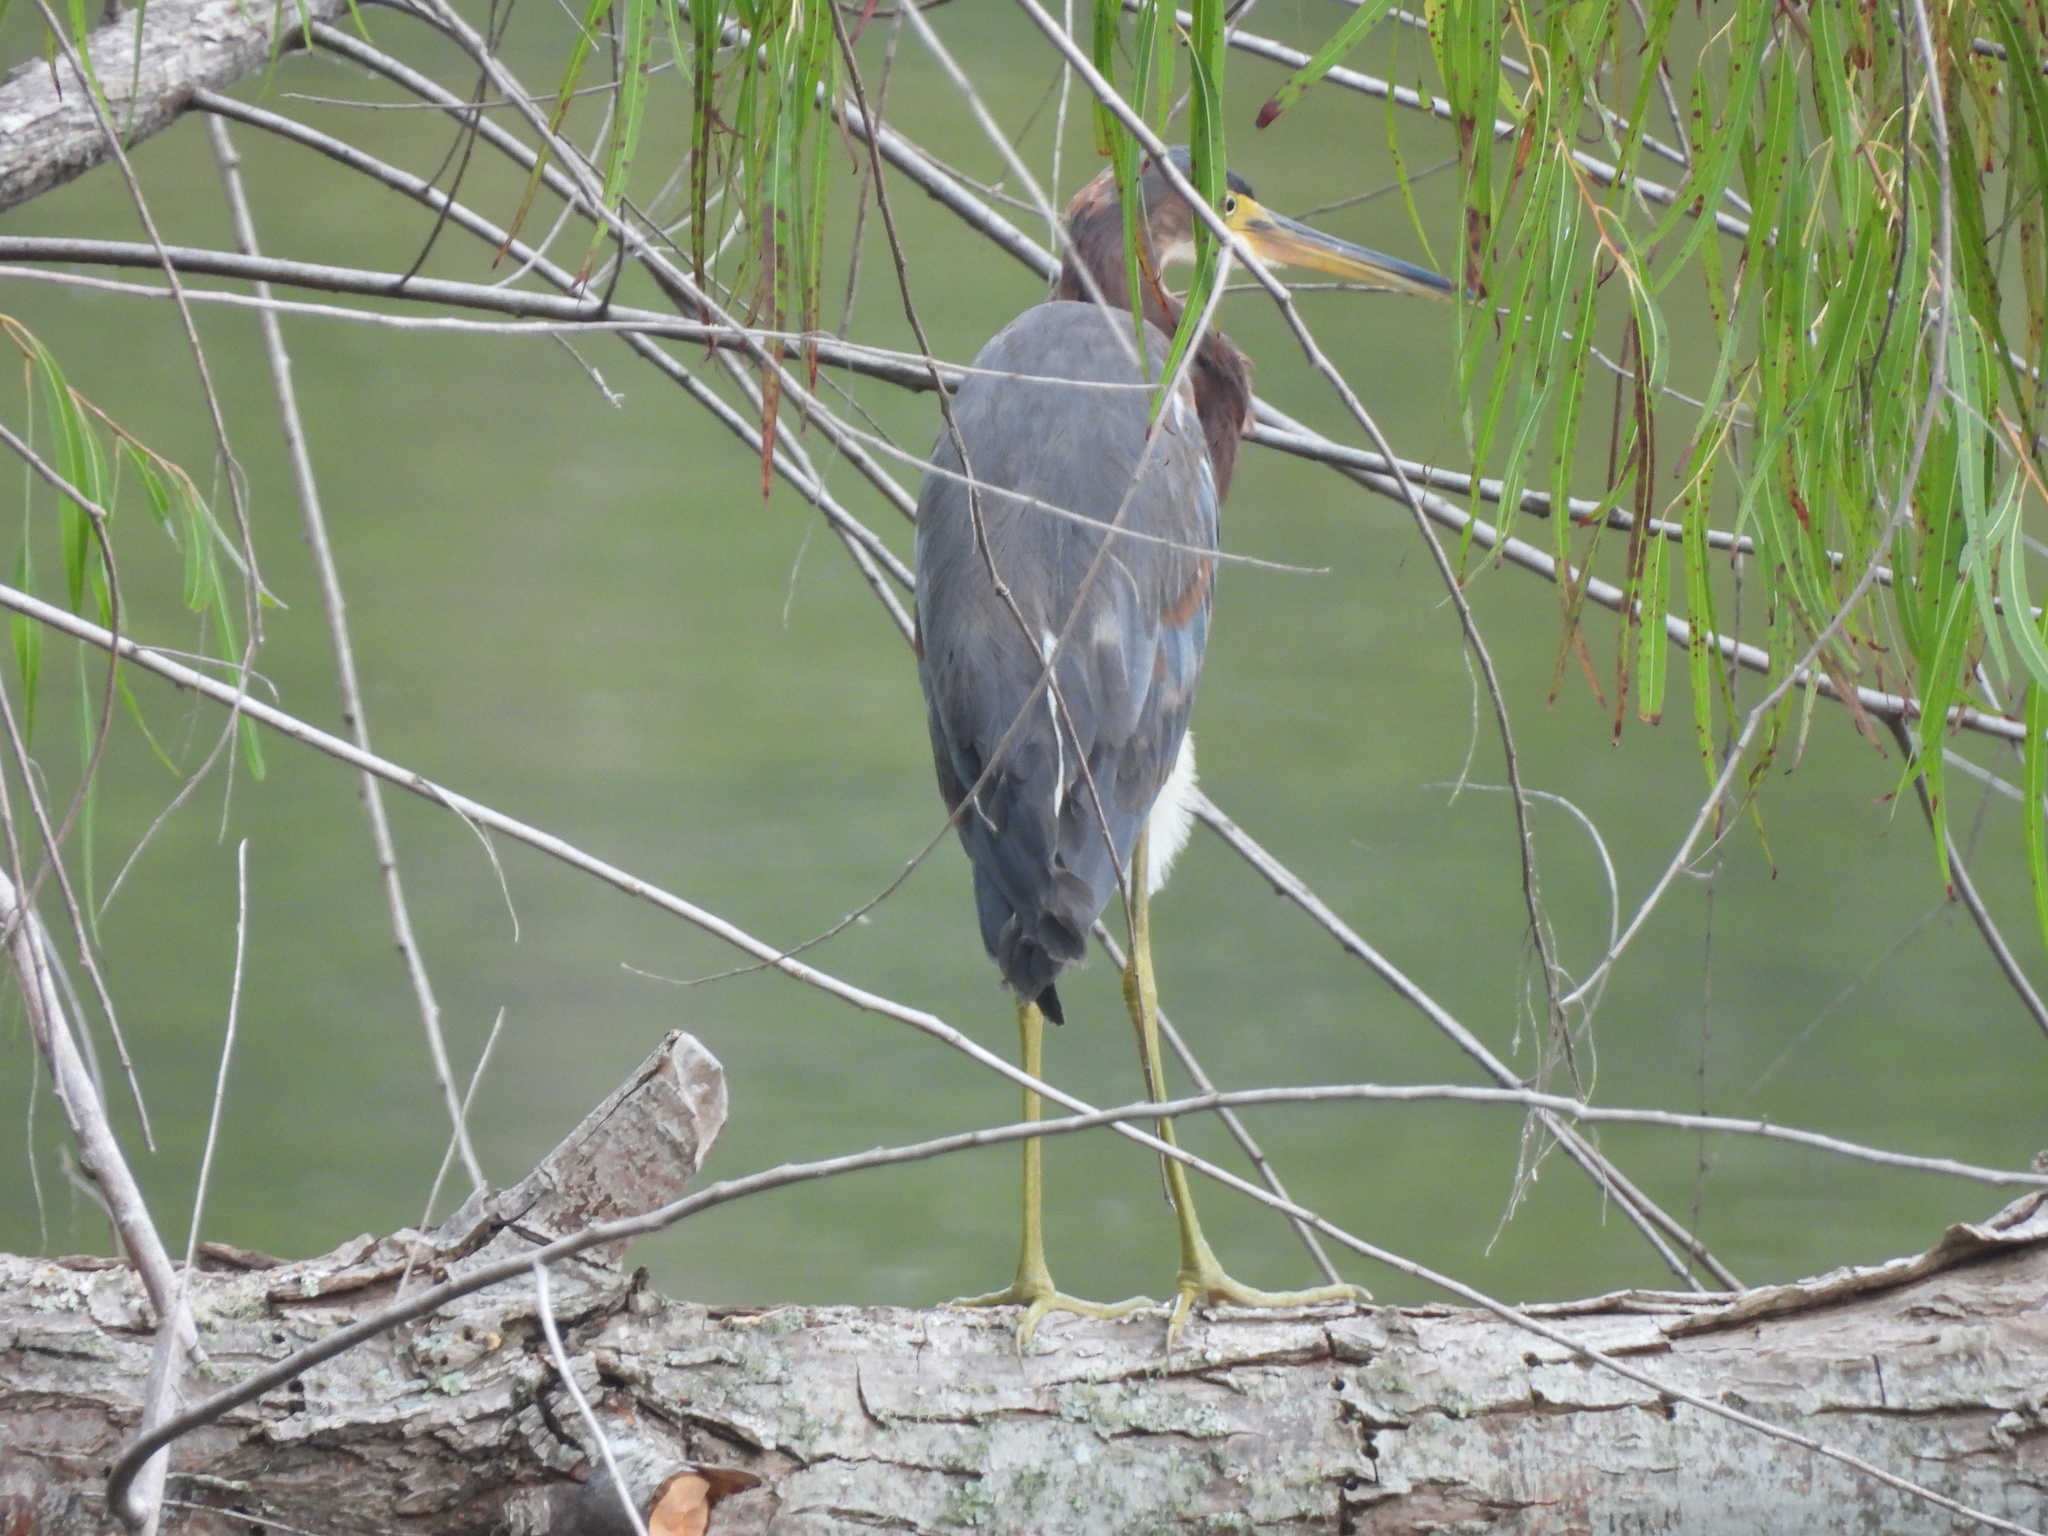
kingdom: Animalia
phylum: Chordata
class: Aves
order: Pelecaniformes
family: Ardeidae
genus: Egretta
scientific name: Egretta tricolor
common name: Tricolored heron
